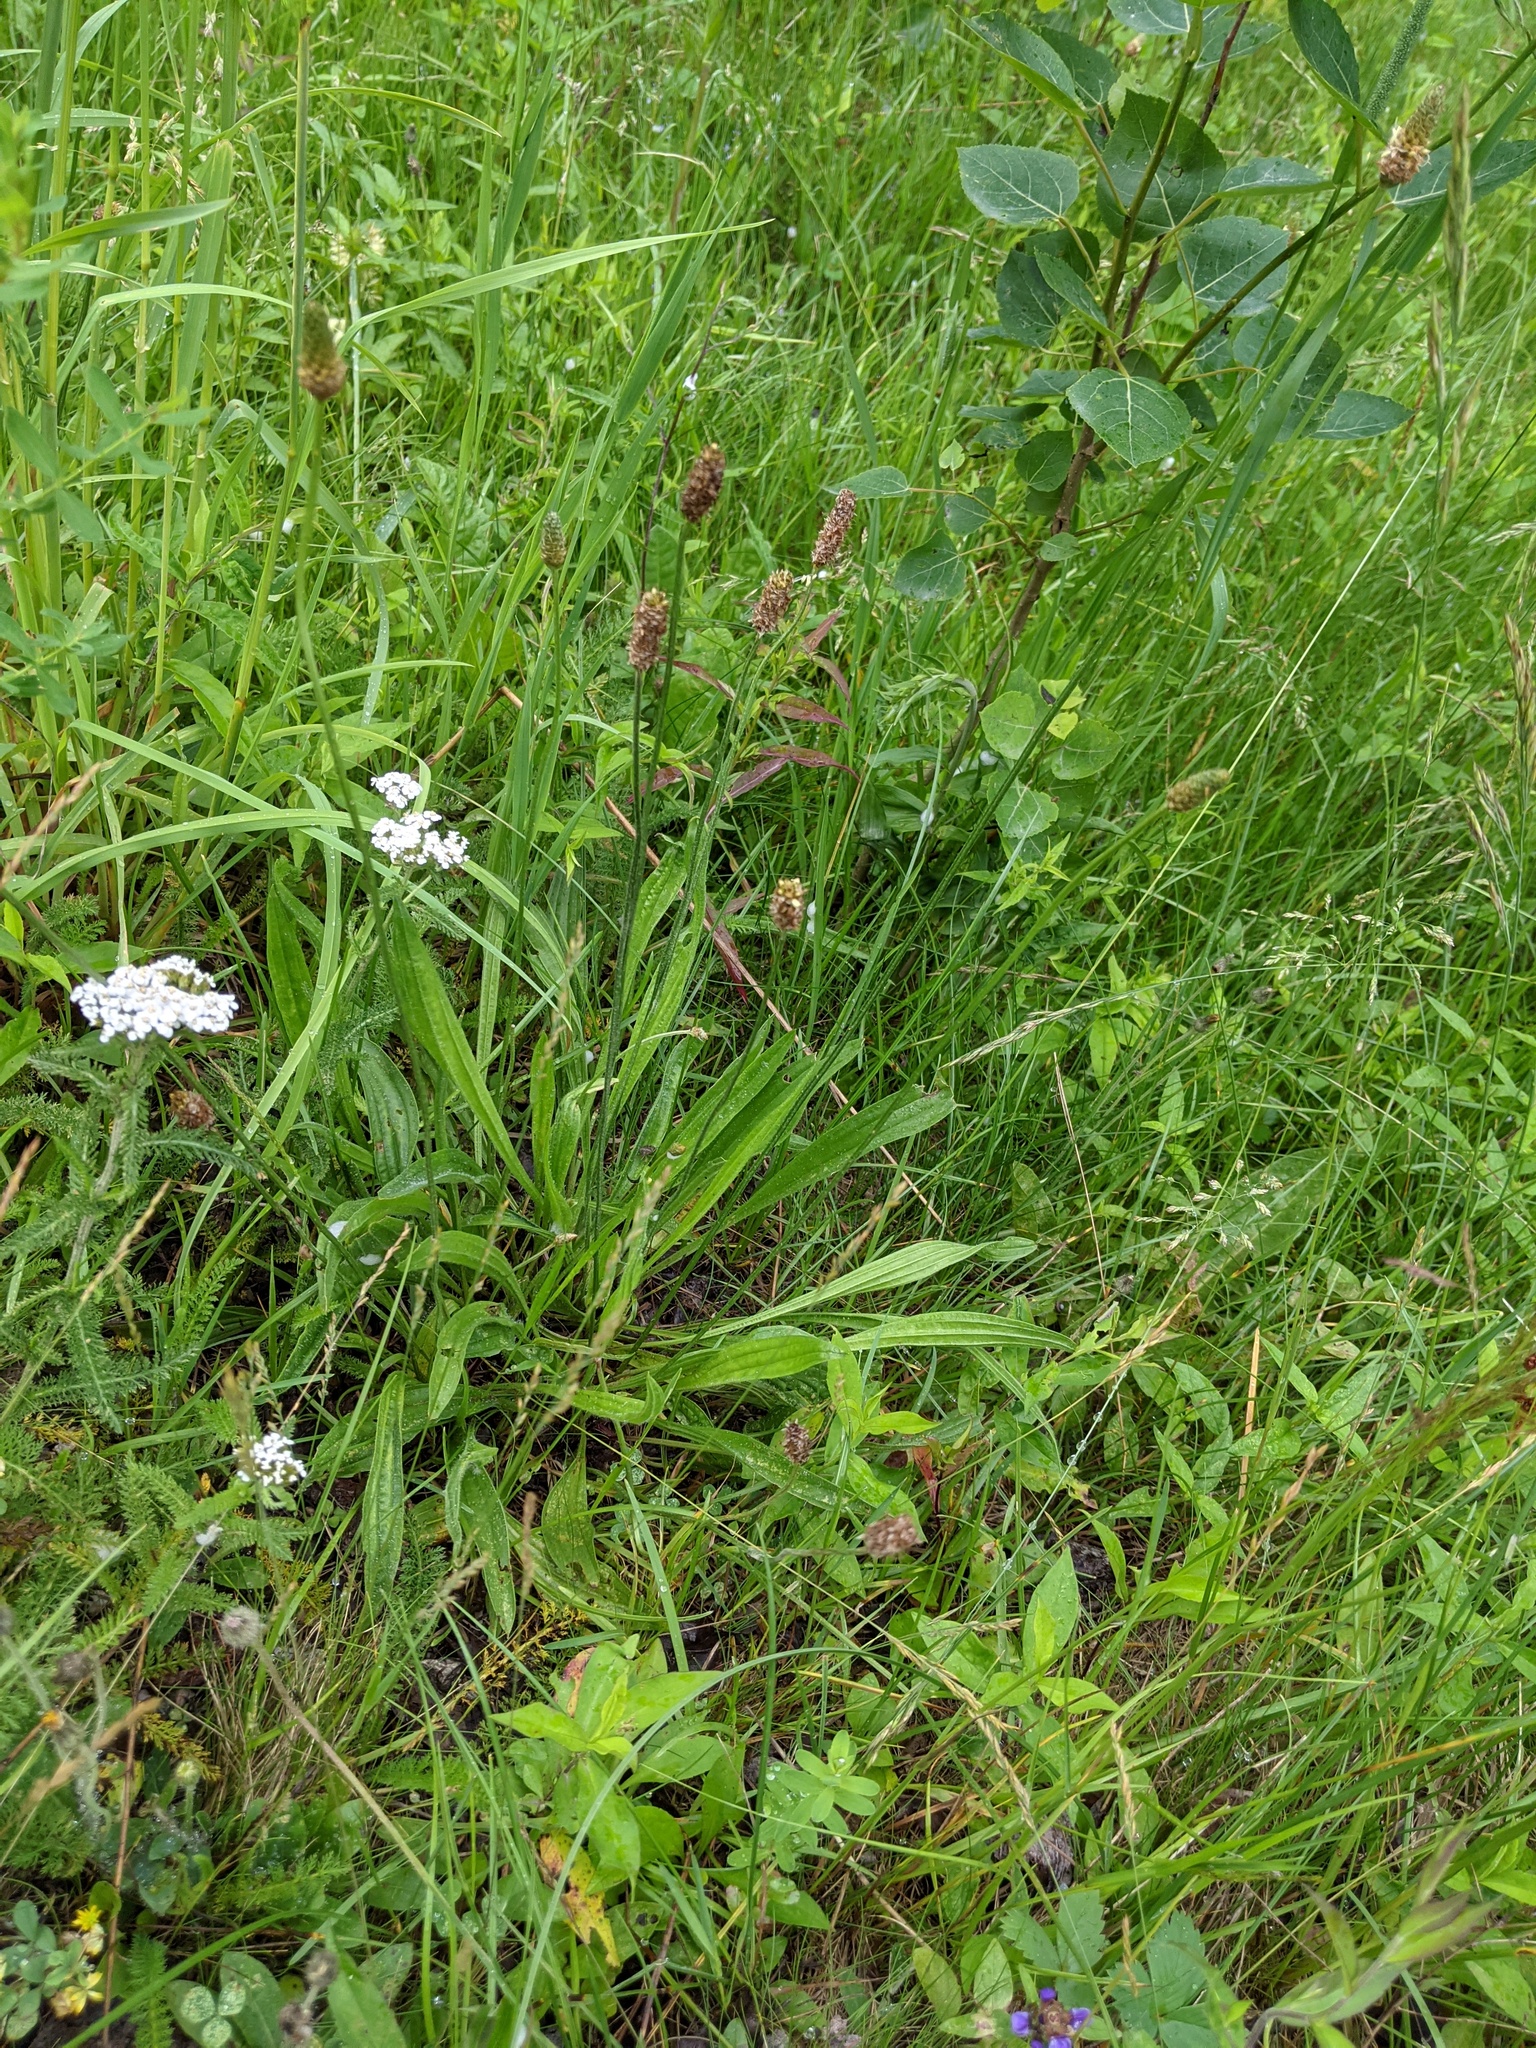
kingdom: Plantae
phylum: Tracheophyta
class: Magnoliopsida
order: Lamiales
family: Plantaginaceae
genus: Plantago
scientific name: Plantago lanceolata
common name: Ribwort plantain
